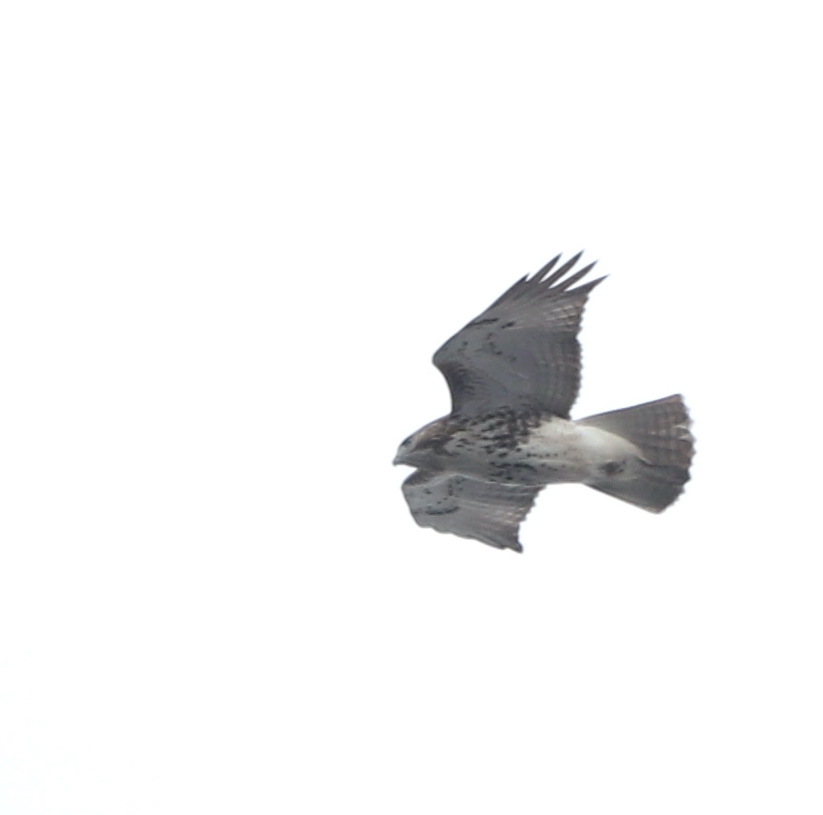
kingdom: Animalia
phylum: Chordata
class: Aves
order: Accipitriformes
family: Accipitridae
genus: Buteo
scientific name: Buteo jamaicensis
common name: Red-tailed hawk
